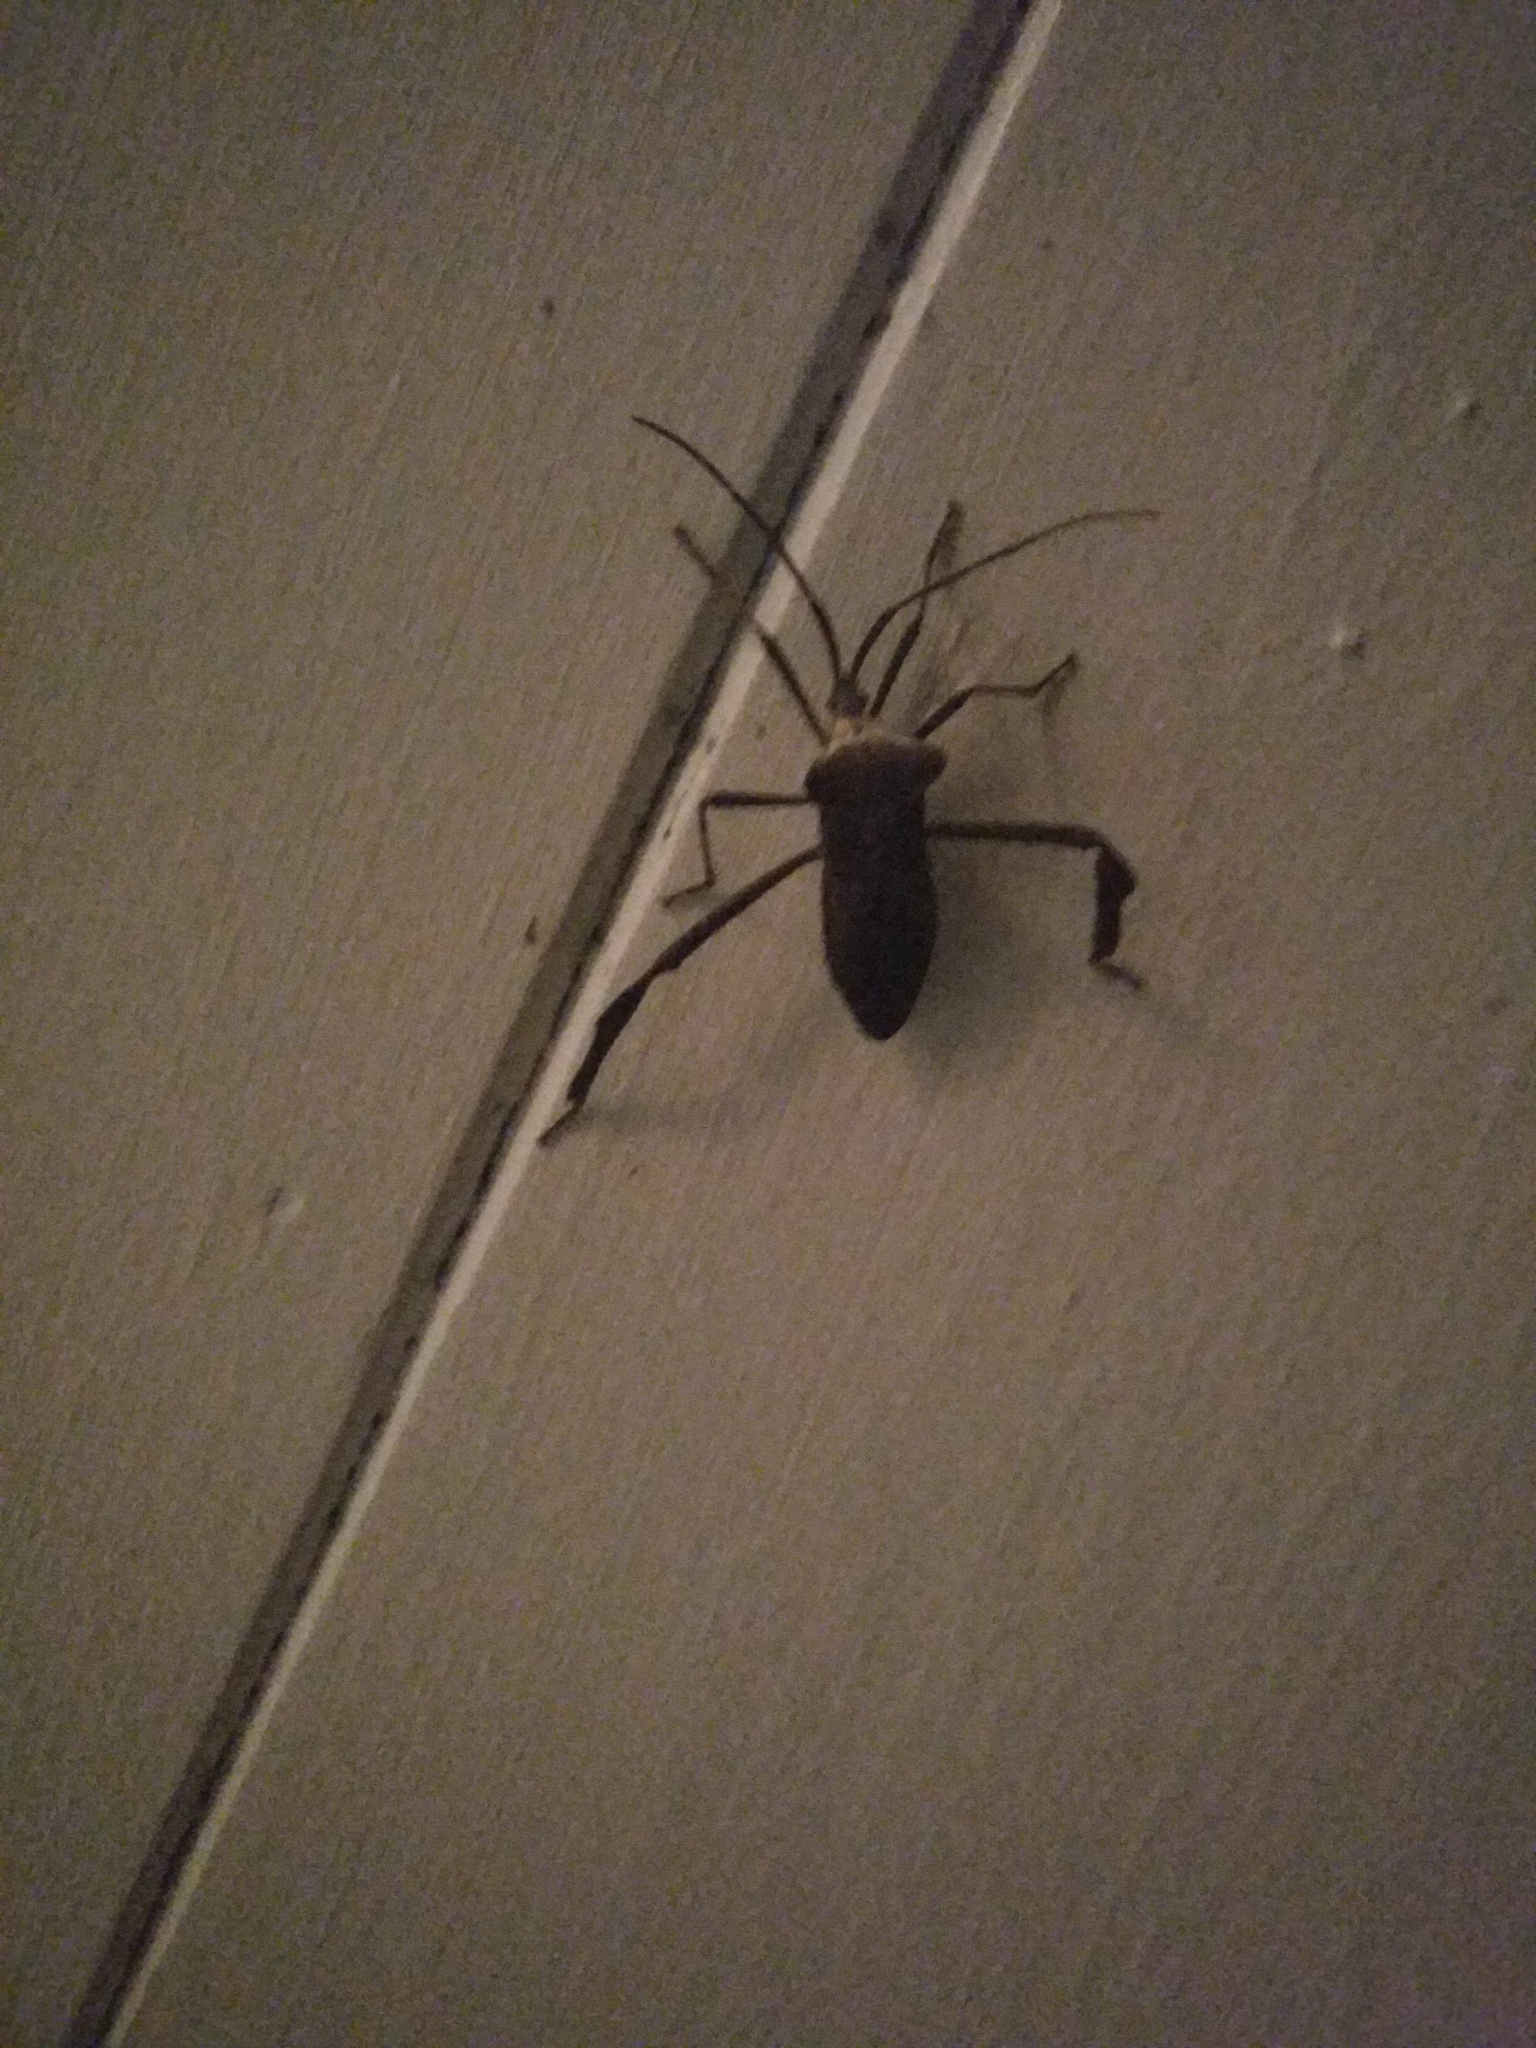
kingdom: Animalia
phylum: Arthropoda
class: Insecta
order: Hemiptera
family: Coreidae
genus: Acanthocephala
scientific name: Acanthocephala declivis
